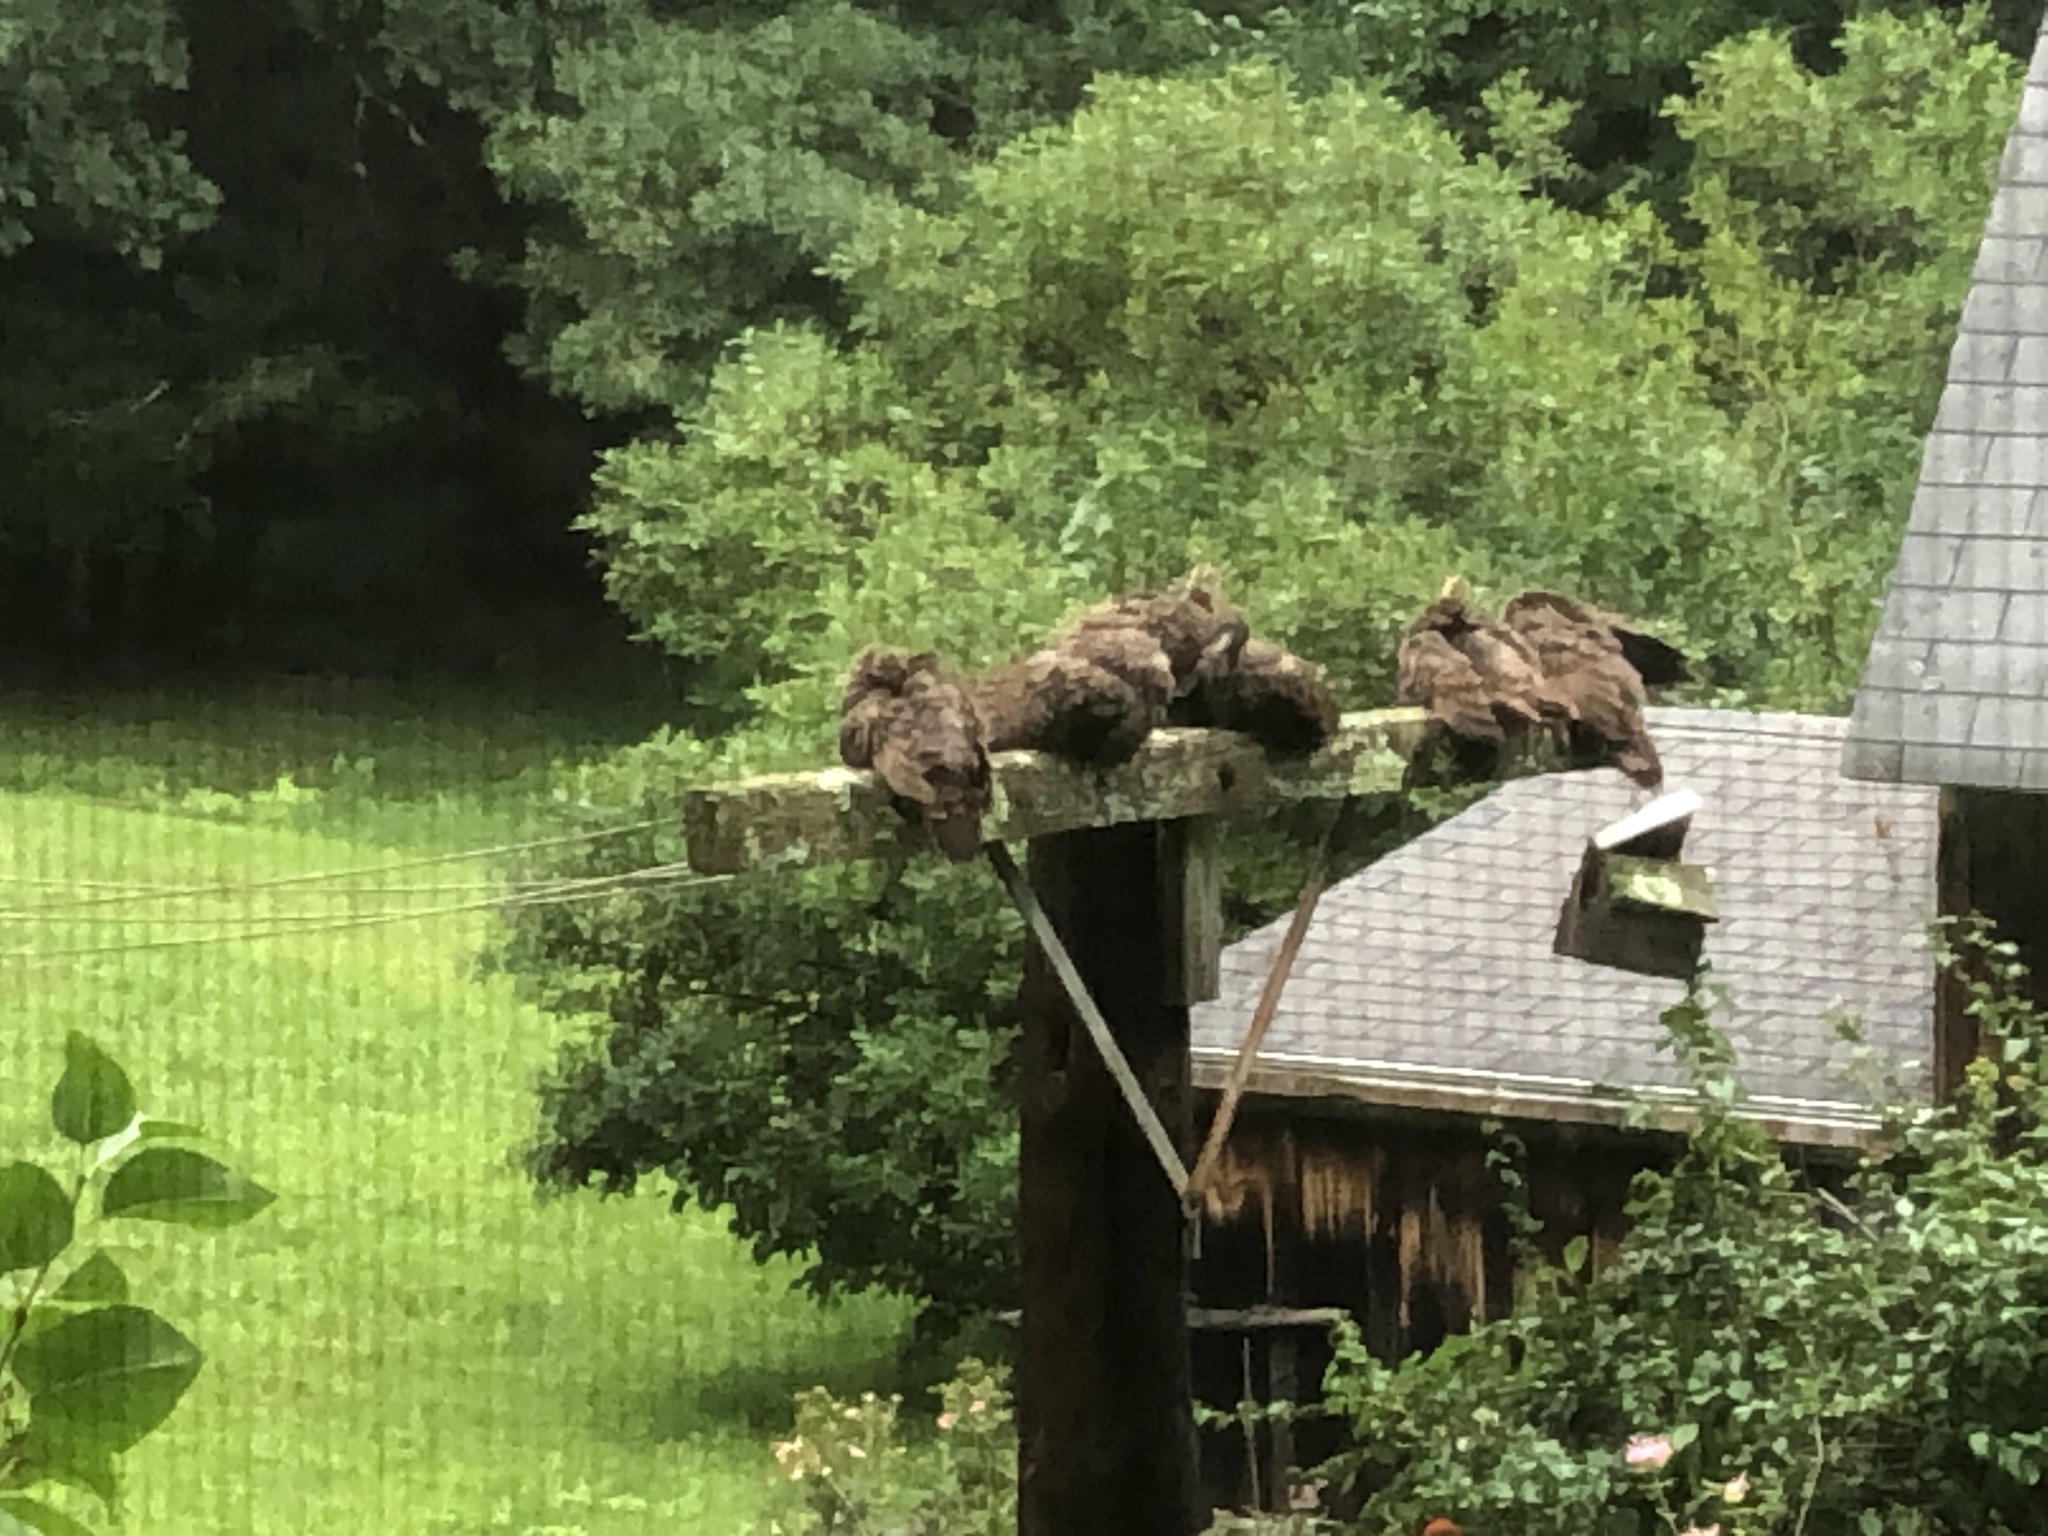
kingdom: Animalia
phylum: Chordata
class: Aves
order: Galliformes
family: Phasianidae
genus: Meleagris
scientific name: Meleagris gallopavo
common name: Wild turkey
